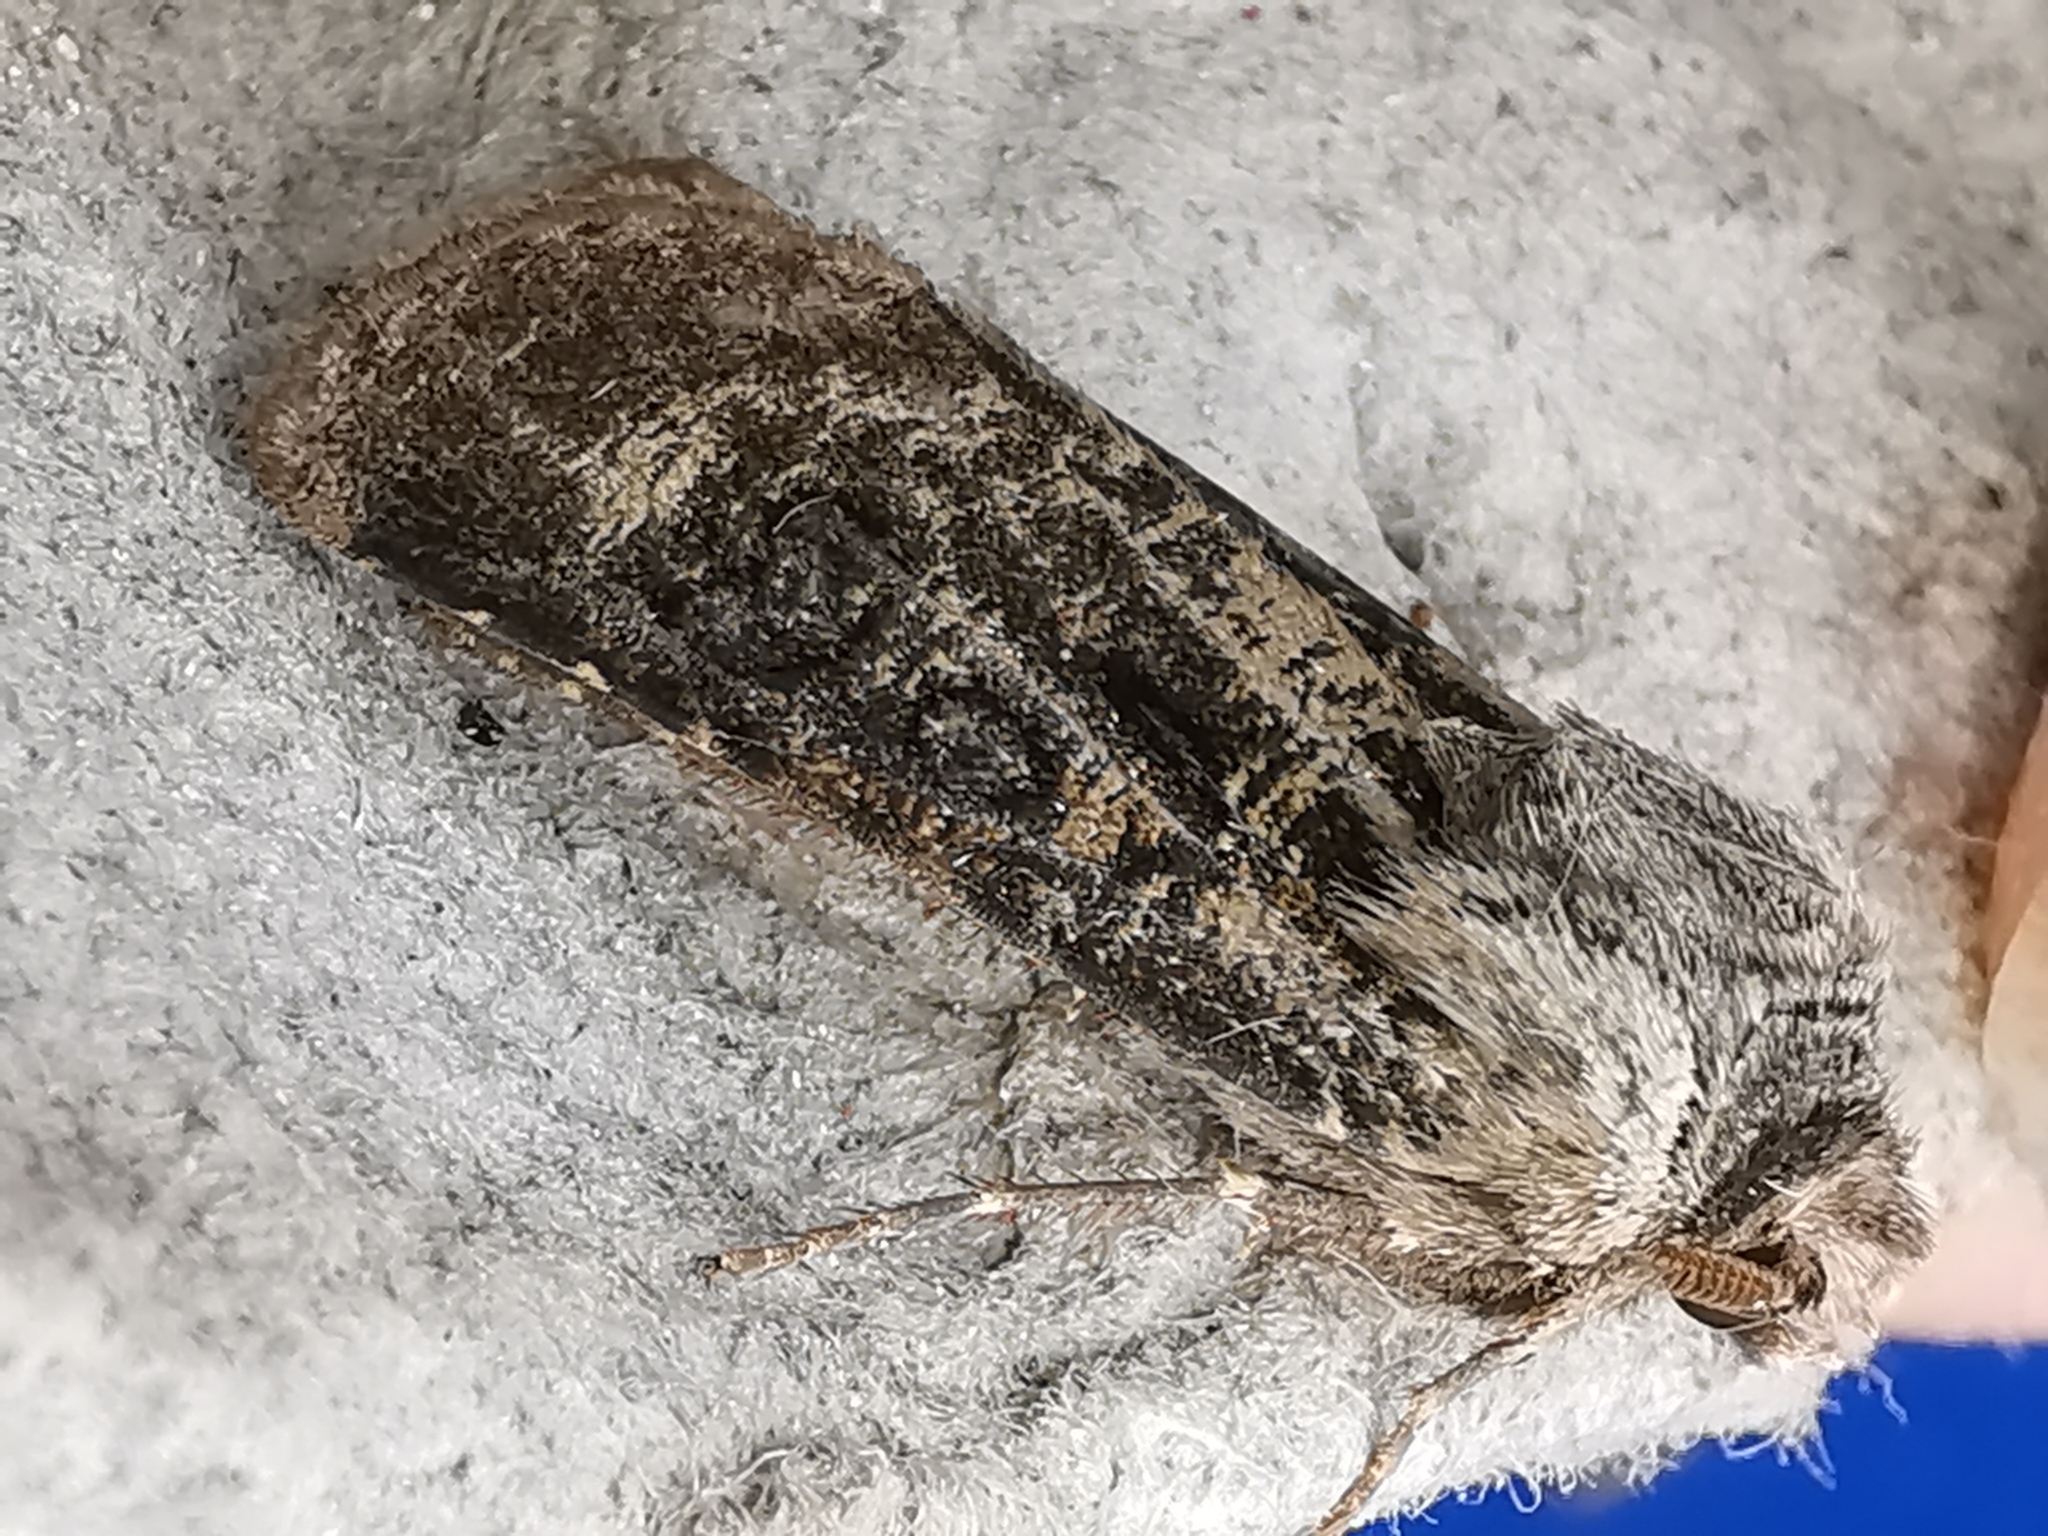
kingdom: Animalia
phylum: Arthropoda
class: Insecta
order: Lepidoptera
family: Noctuidae
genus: Agrotis
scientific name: Agrotis clavis
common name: Heart and club
